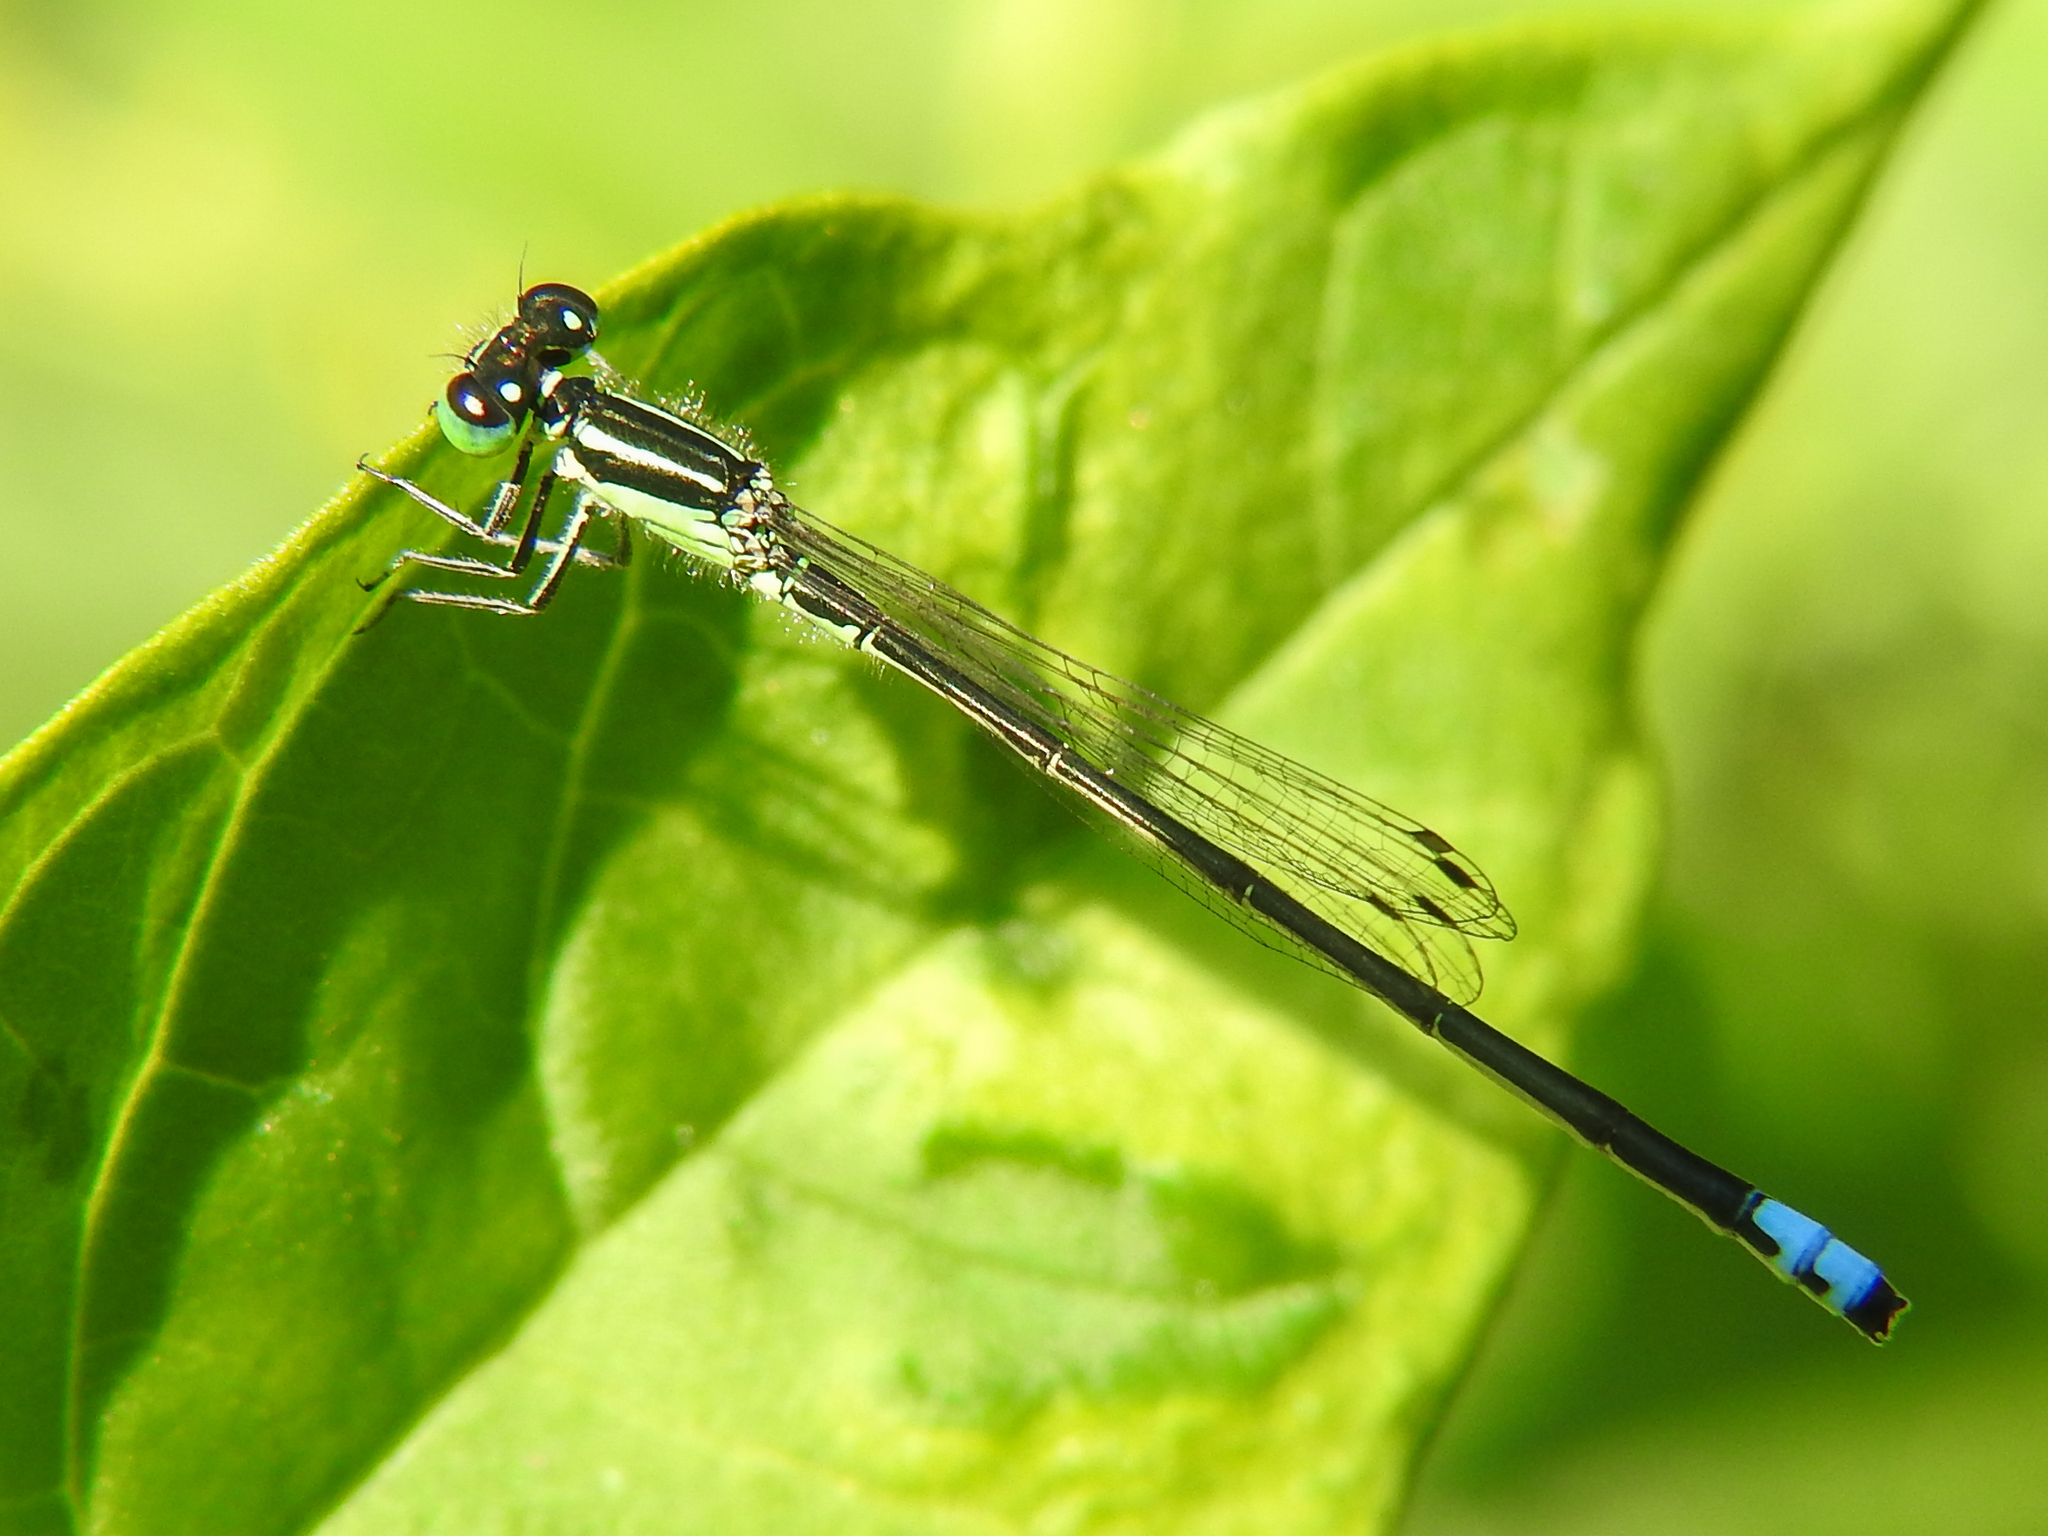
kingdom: Animalia
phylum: Arthropoda
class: Insecta
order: Odonata
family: Coenagrionidae
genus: Ischnura
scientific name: Ischnura verticalis
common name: Eastern forktail
